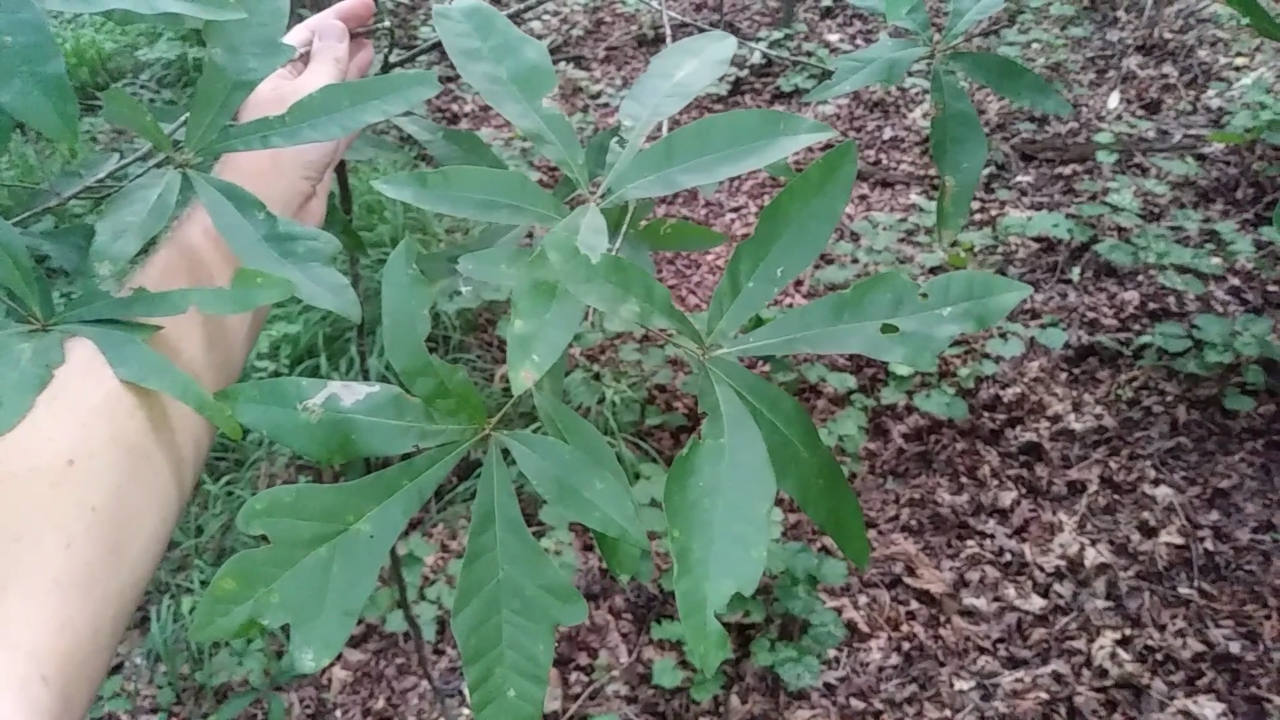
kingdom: Plantae
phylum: Tracheophyta
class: Magnoliopsida
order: Fagales
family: Fagaceae
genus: Quercus
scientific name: Quercus laurifolia
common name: Swamp laurel oak
